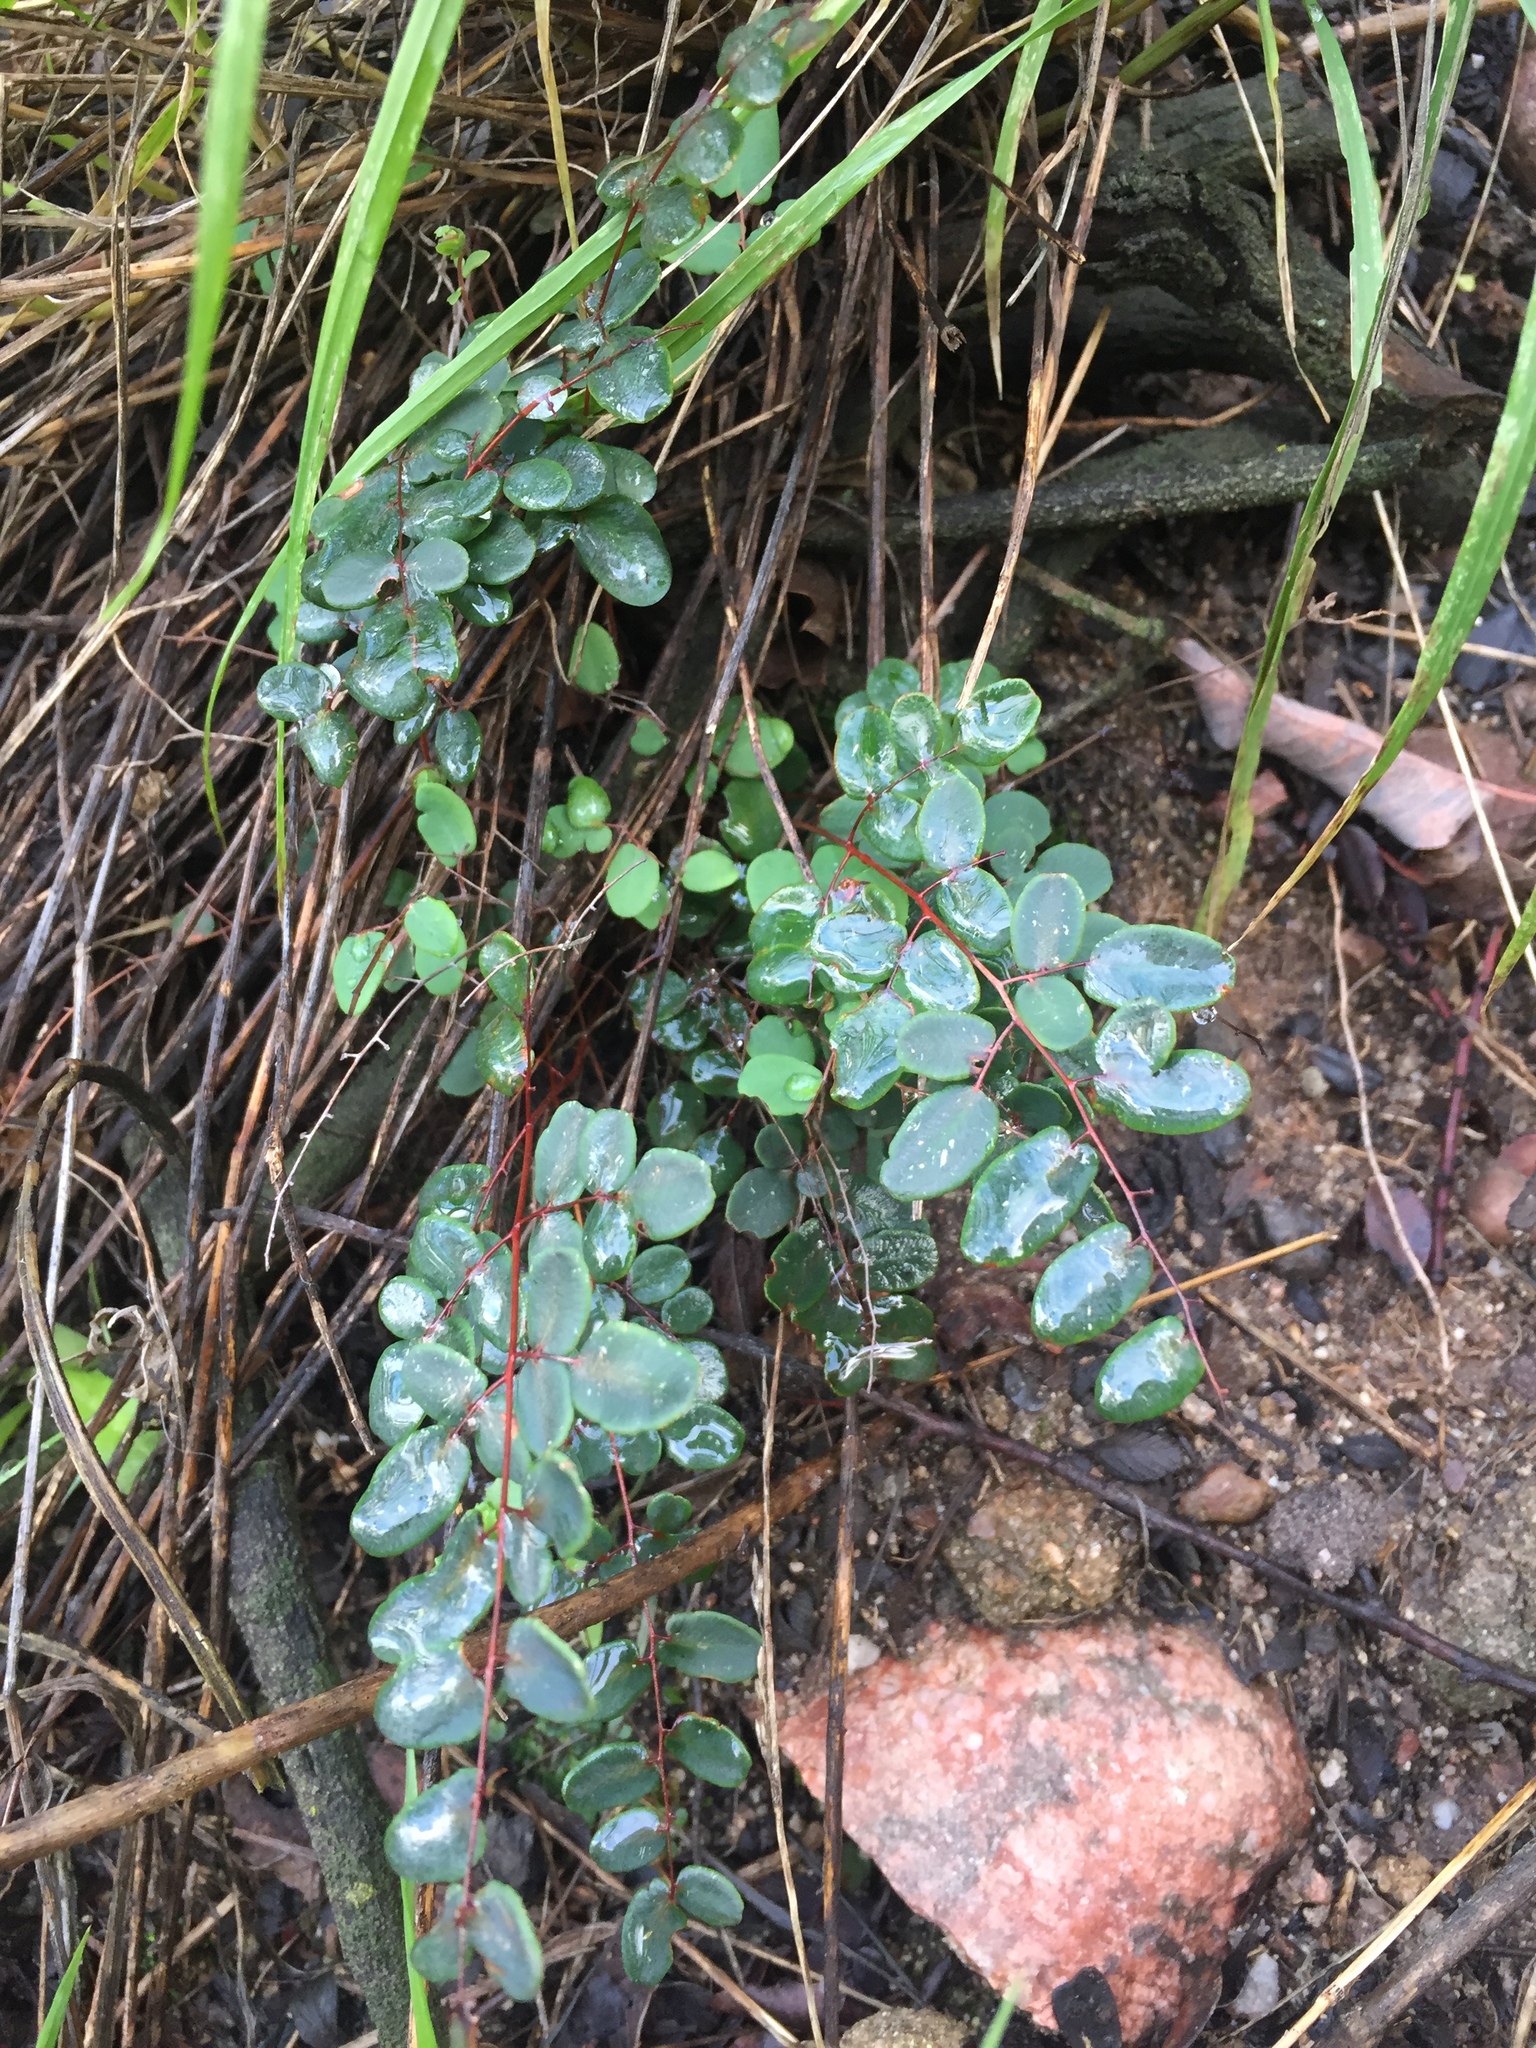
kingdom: Plantae
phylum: Tracheophyta
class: Polypodiopsida
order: Polypodiales
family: Pteridaceae
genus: Pellaea
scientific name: Pellaea andromedifolia
